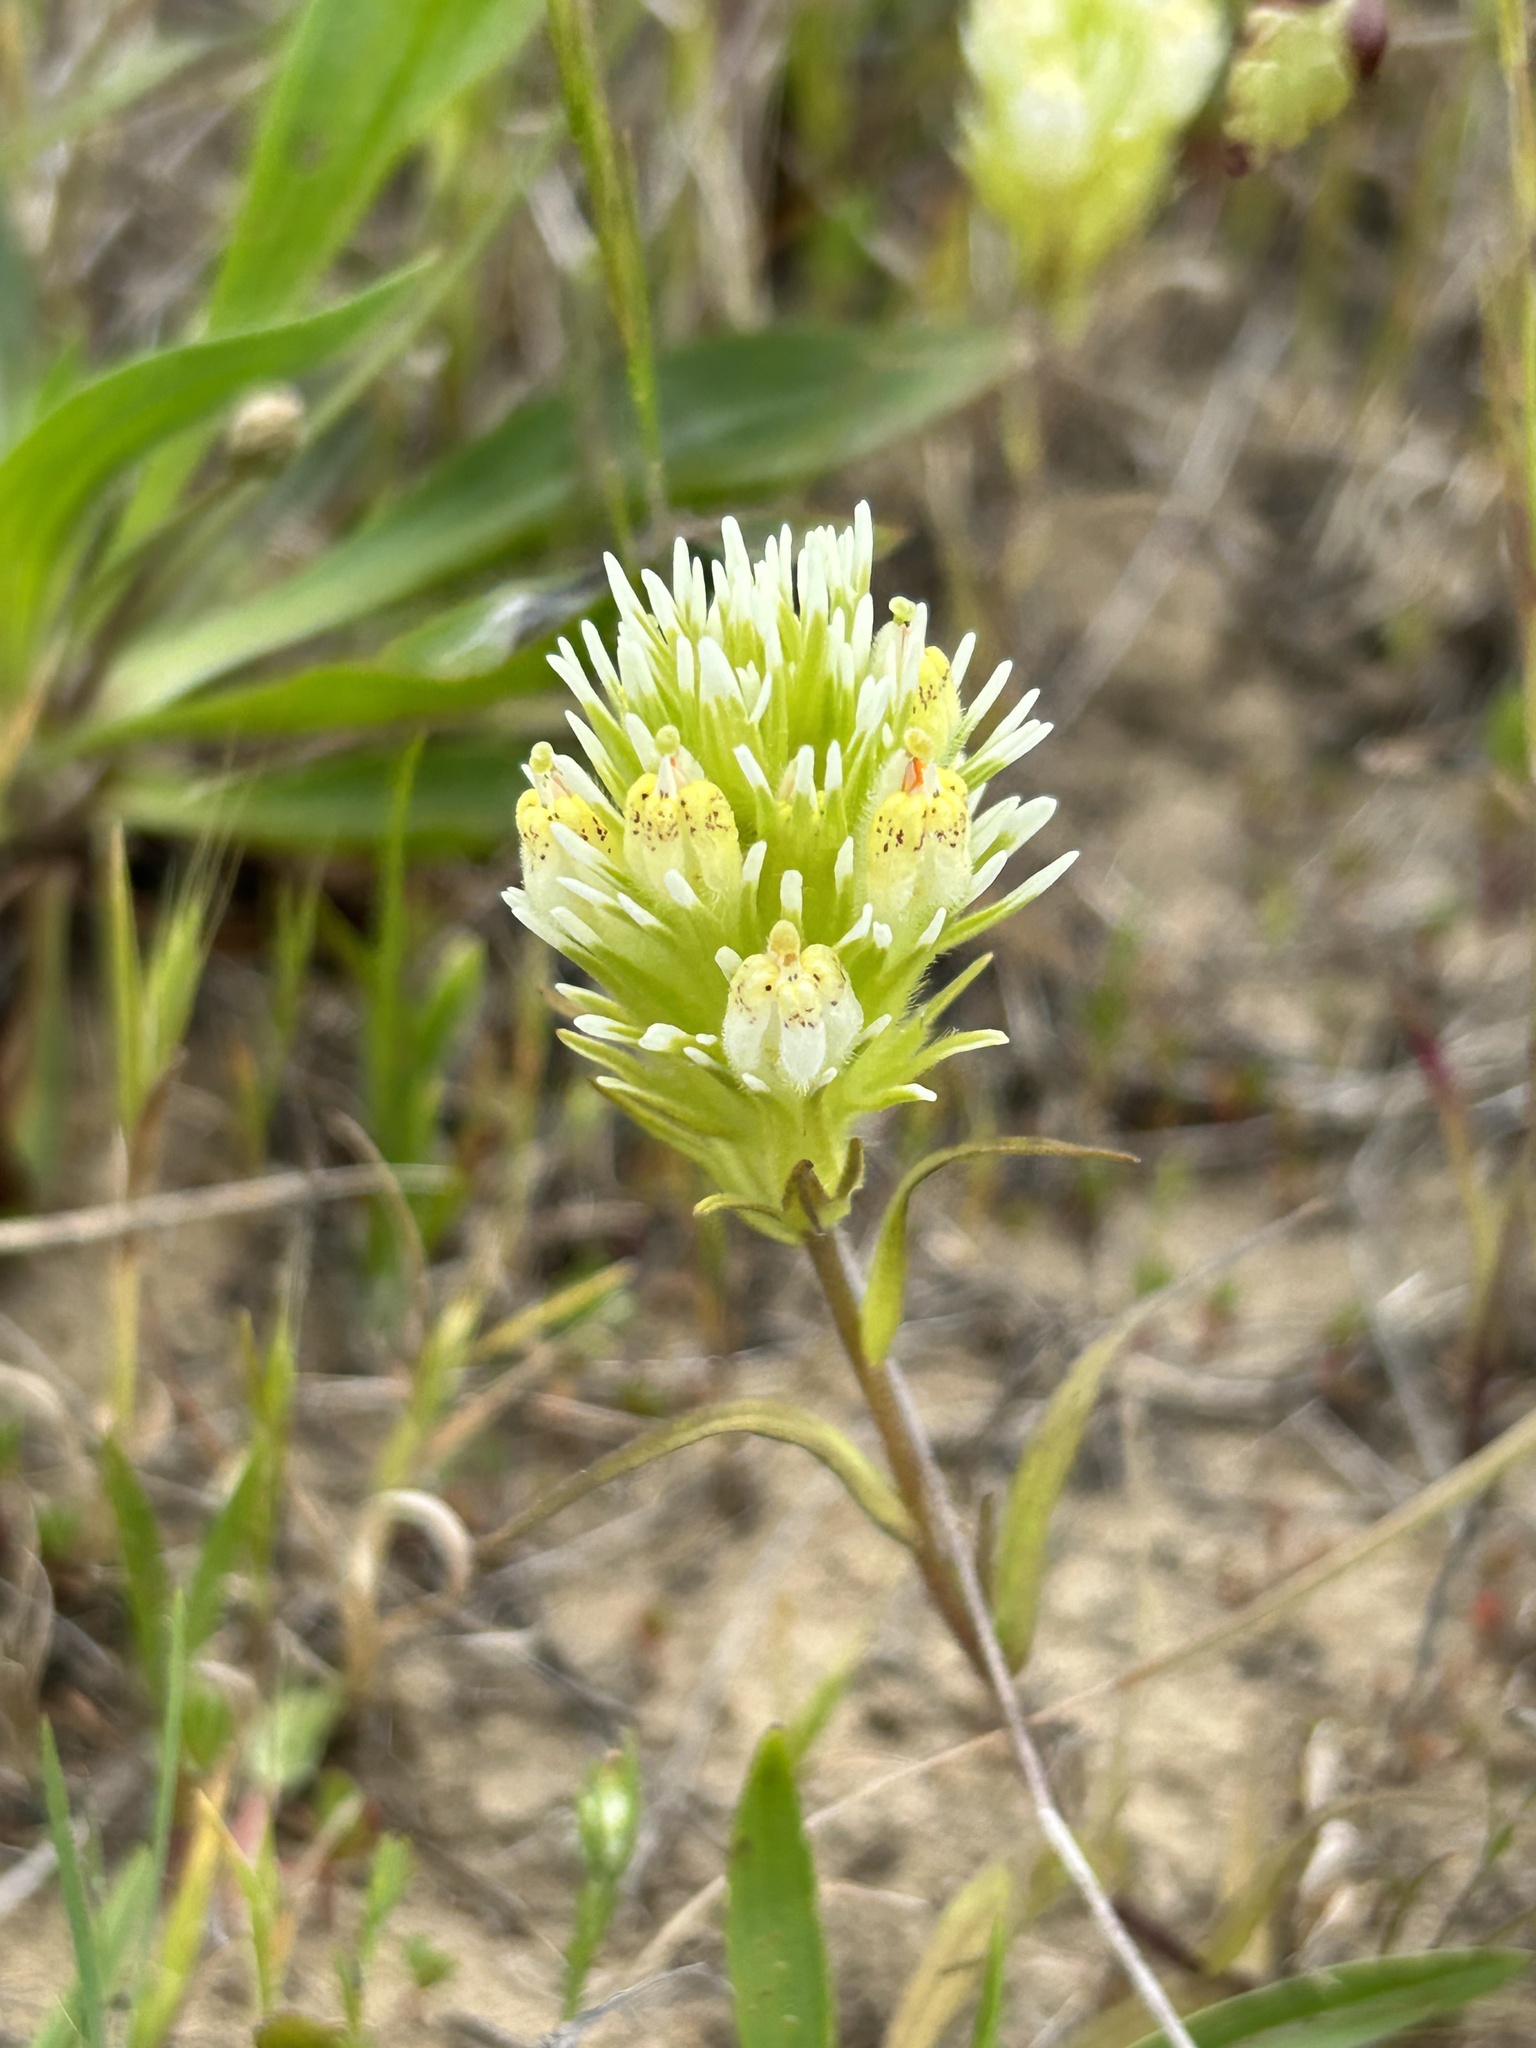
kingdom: Plantae
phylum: Tracheophyta
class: Magnoliopsida
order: Lamiales
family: Orobanchaceae
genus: Castilleja
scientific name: Castilleja densiflora
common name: Dense-flower indian paintbrush
